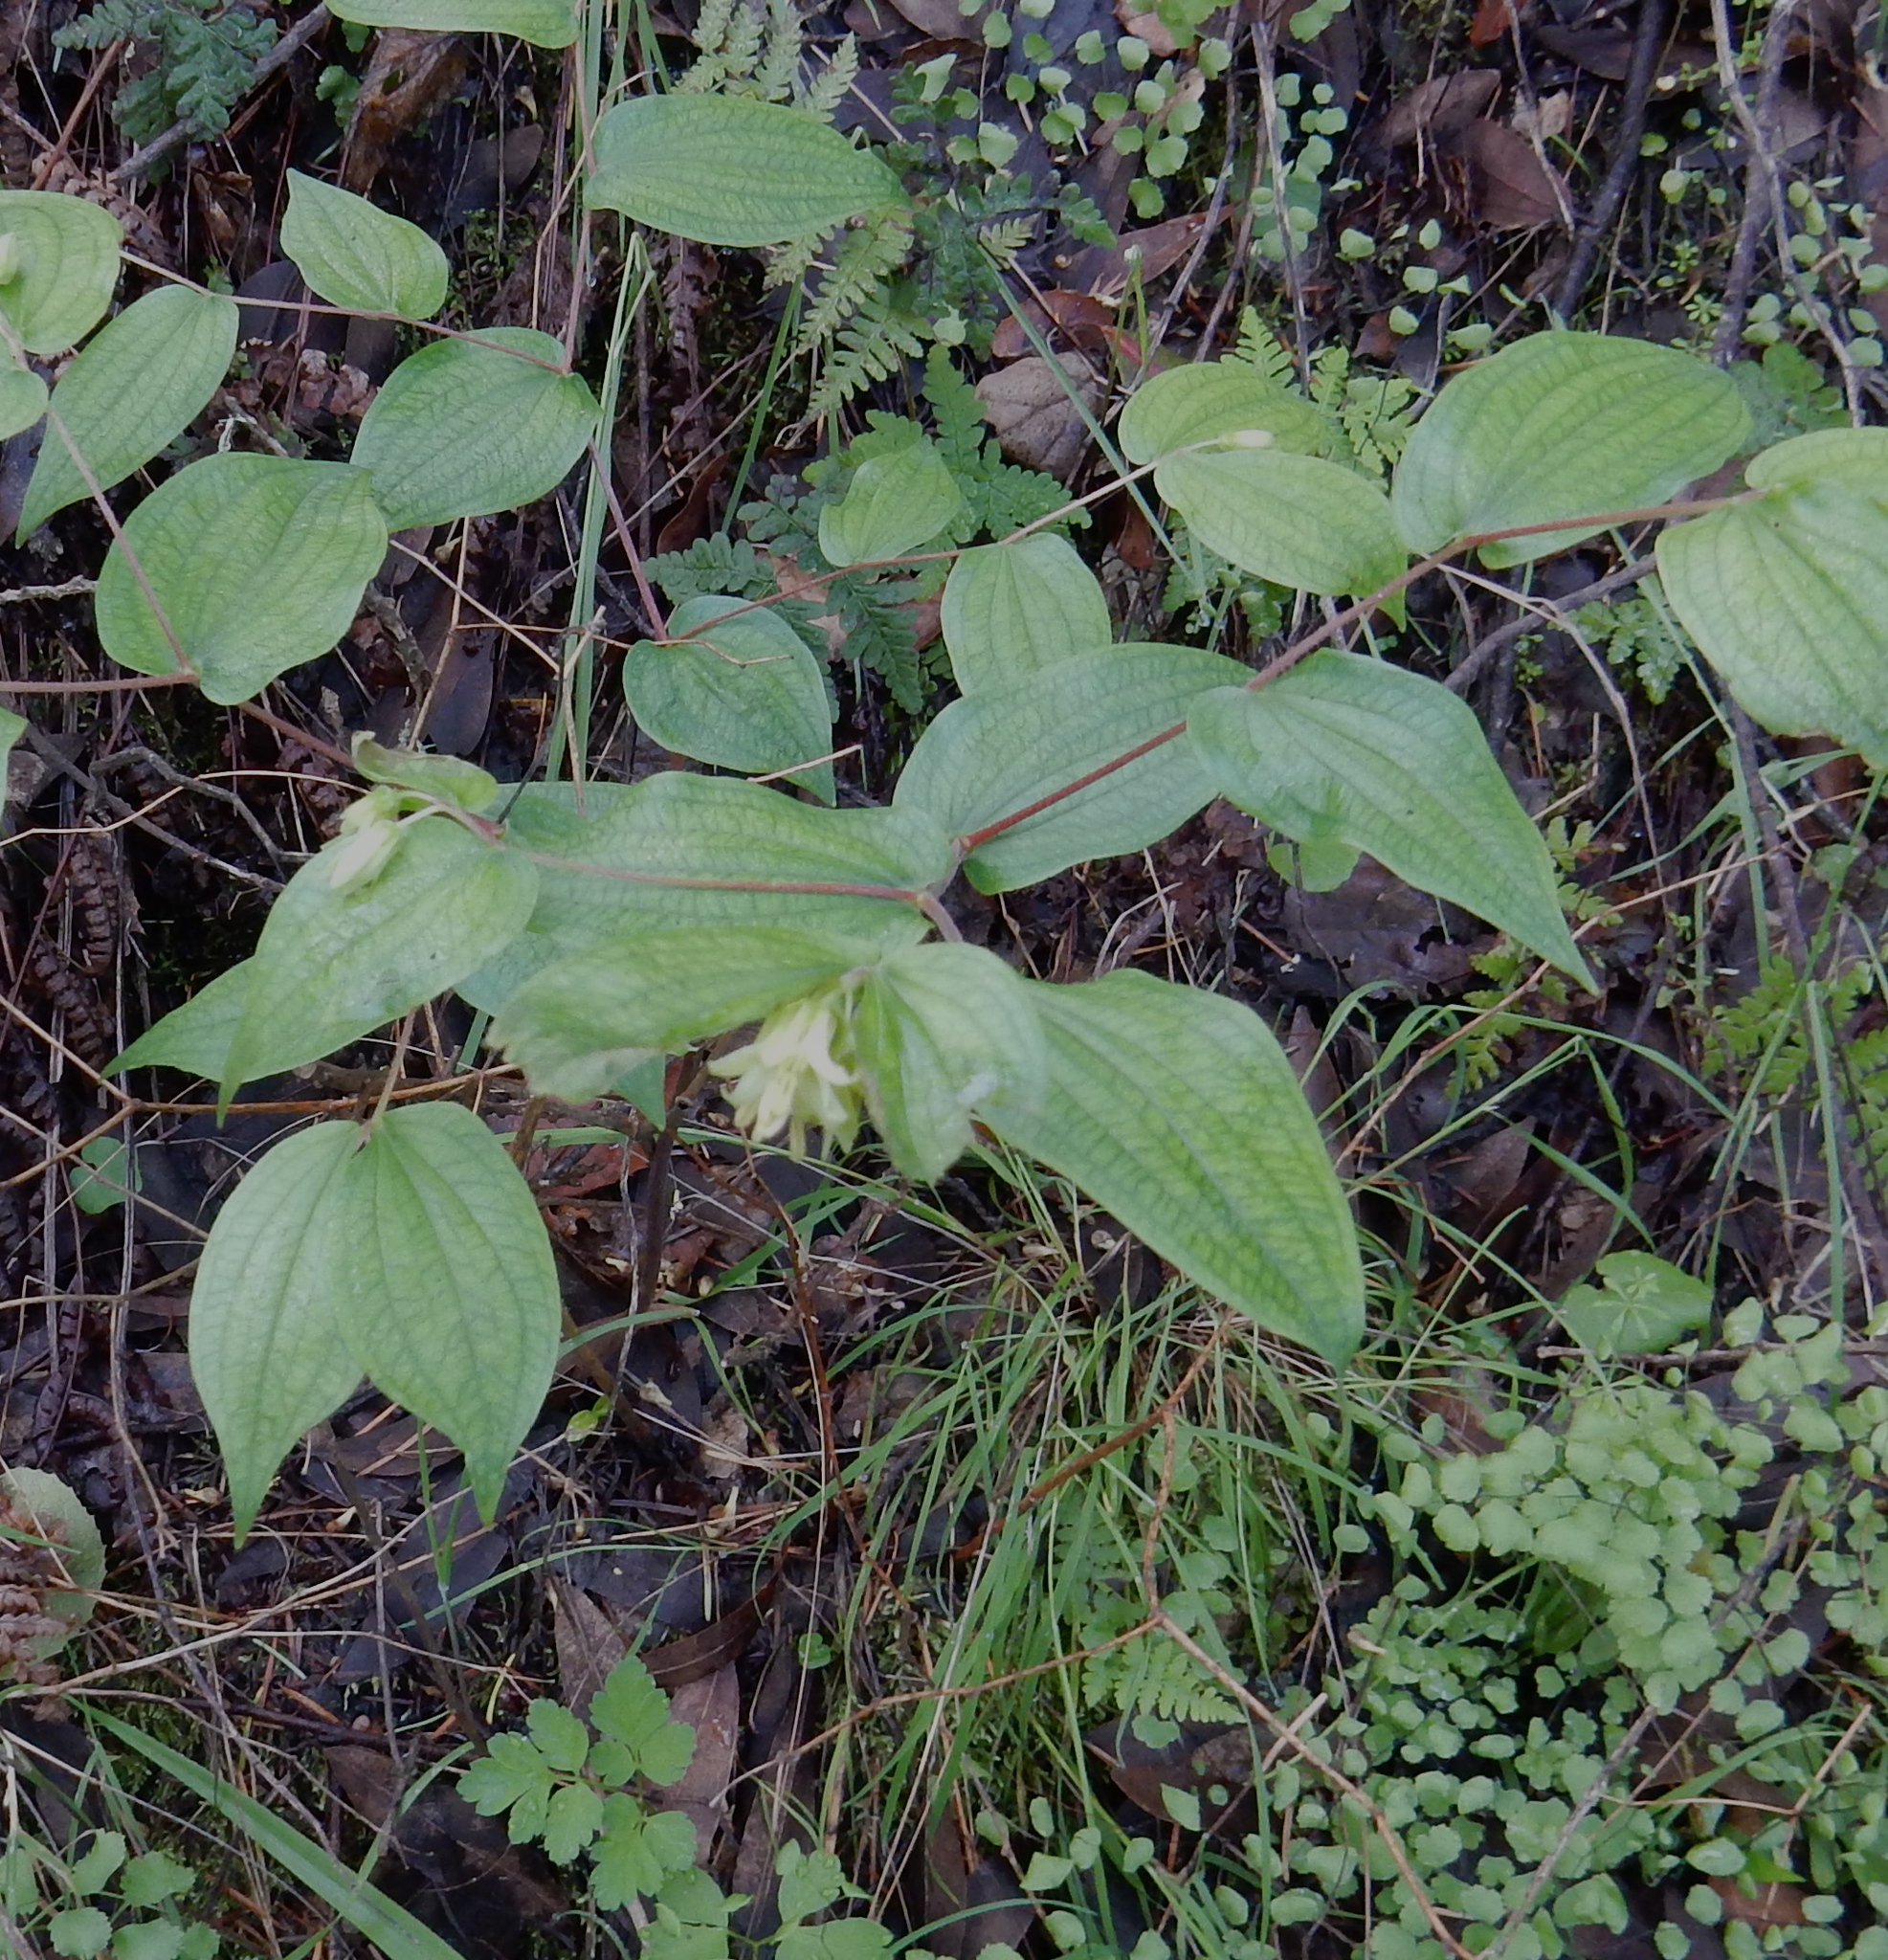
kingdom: Plantae
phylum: Tracheophyta
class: Liliopsida
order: Liliales
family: Liliaceae
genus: Prosartes
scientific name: Prosartes hookeri
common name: Fairy-bells
